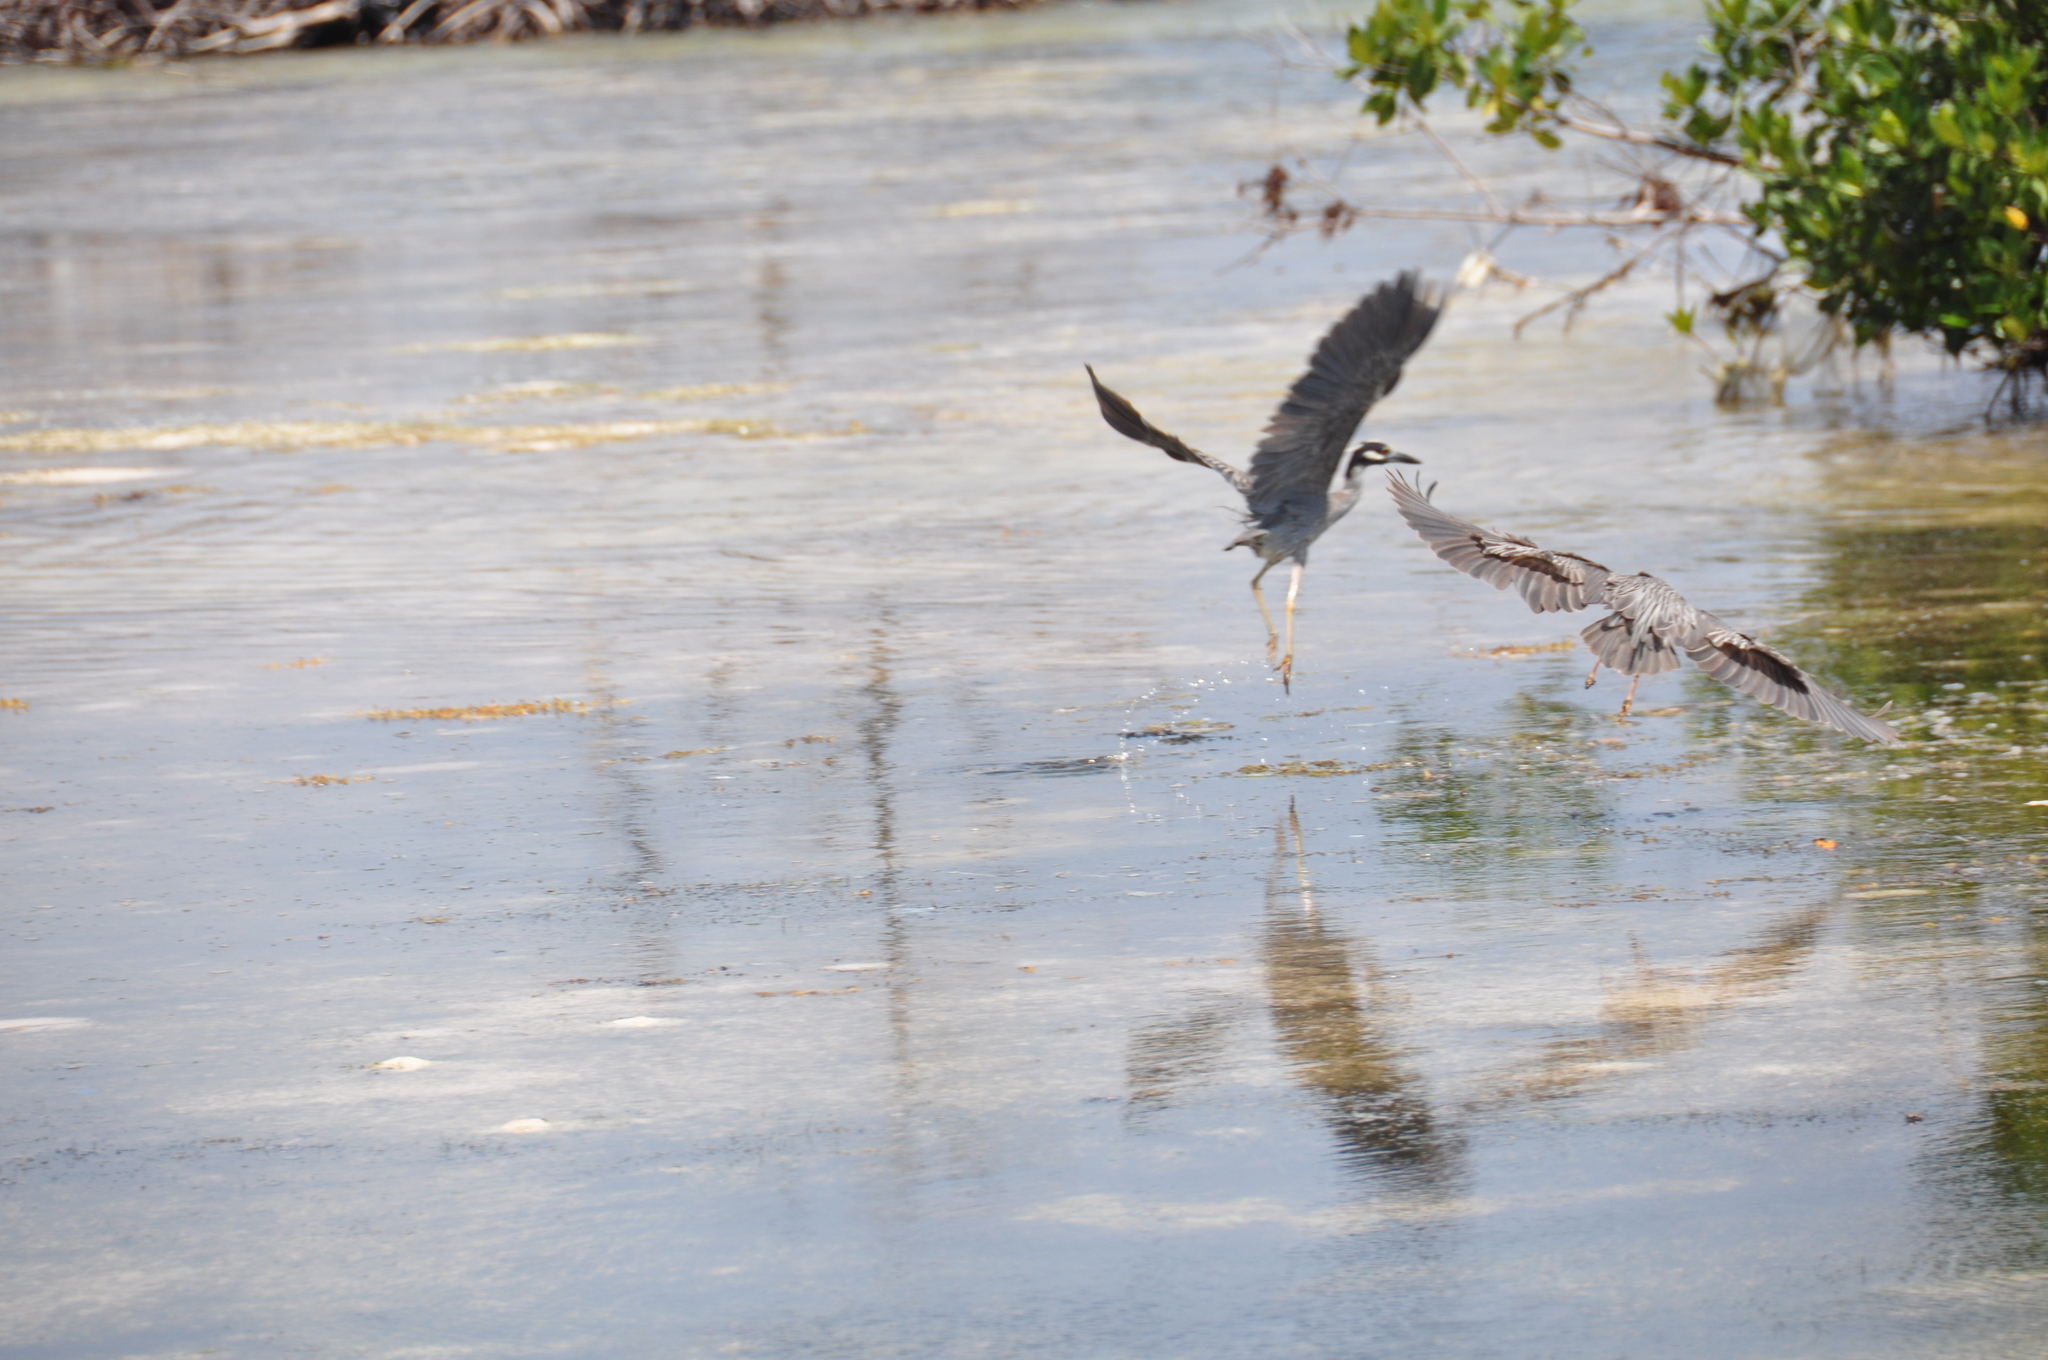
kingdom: Animalia
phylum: Chordata
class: Aves
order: Pelecaniformes
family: Ardeidae
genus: Nyctanassa
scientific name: Nyctanassa violacea
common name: Yellow-crowned night heron
